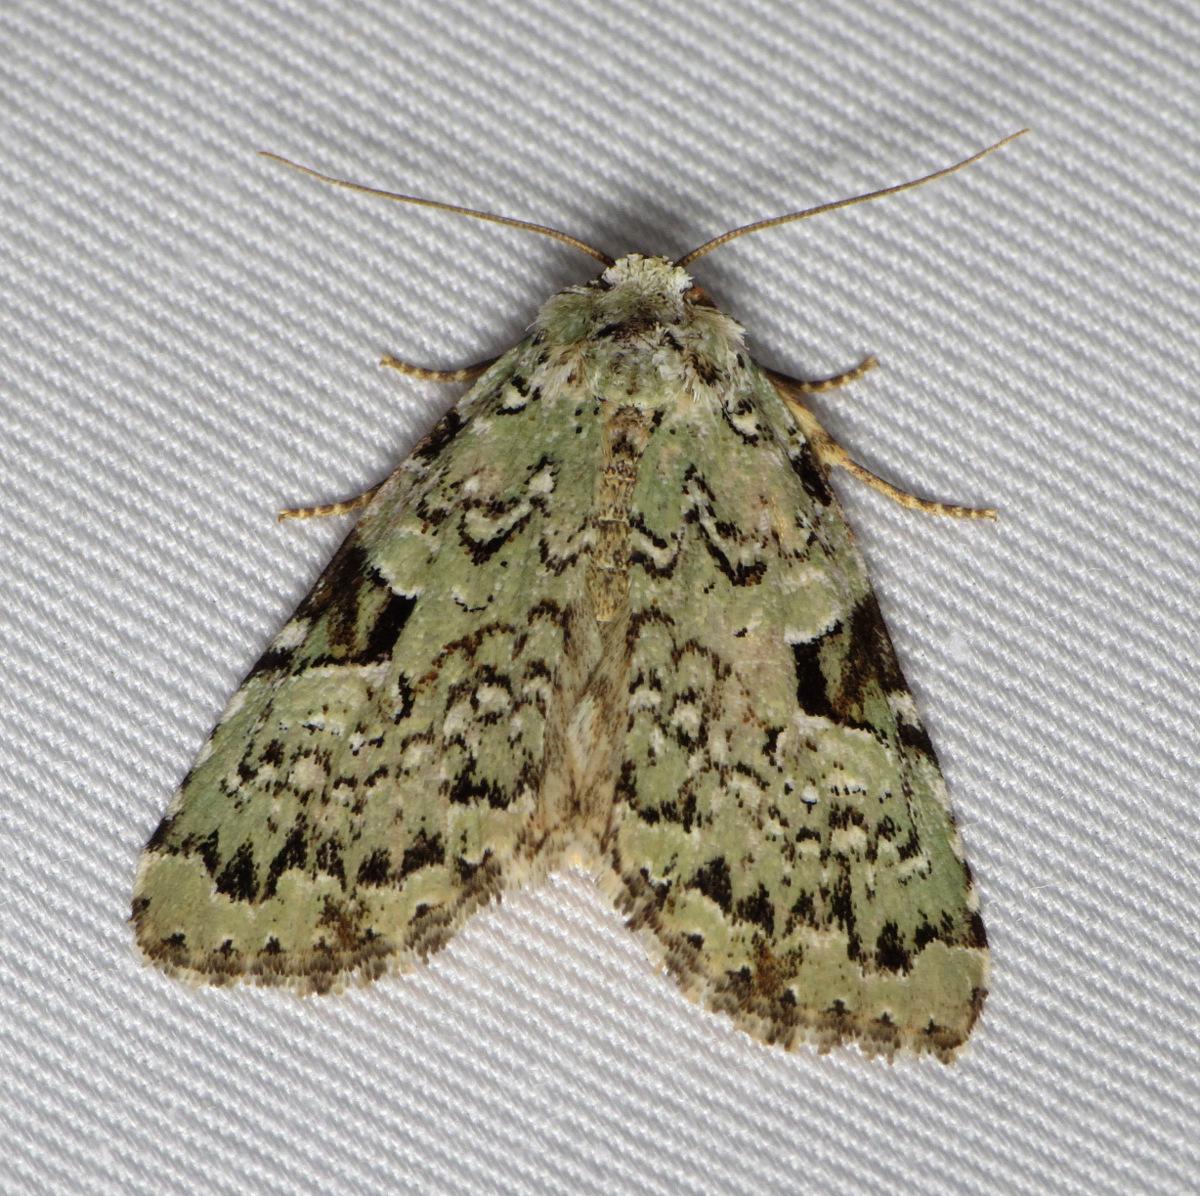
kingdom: Animalia
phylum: Arthropoda
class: Insecta
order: Lepidoptera
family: Noctuidae
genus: Leuconycta
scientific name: Leuconycta diphteroides
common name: Green leuconycta moth
